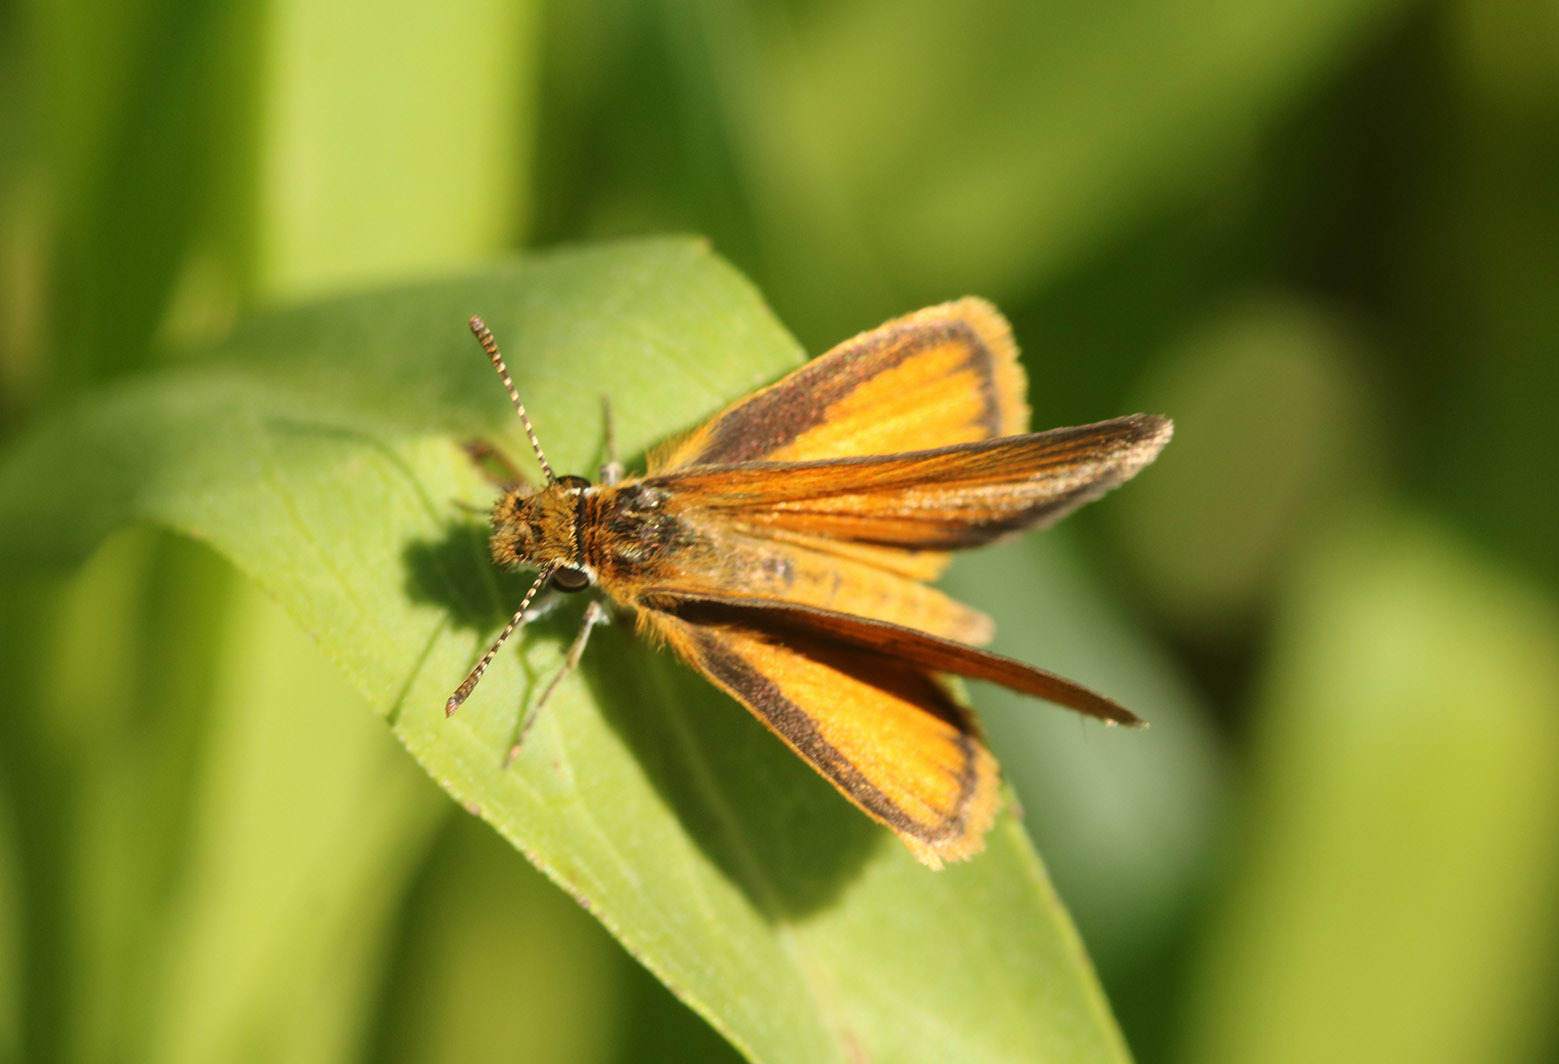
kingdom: Animalia
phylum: Arthropoda
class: Insecta
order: Lepidoptera
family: Hesperiidae
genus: Ancyloxypha
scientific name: Ancyloxypha nitedula
